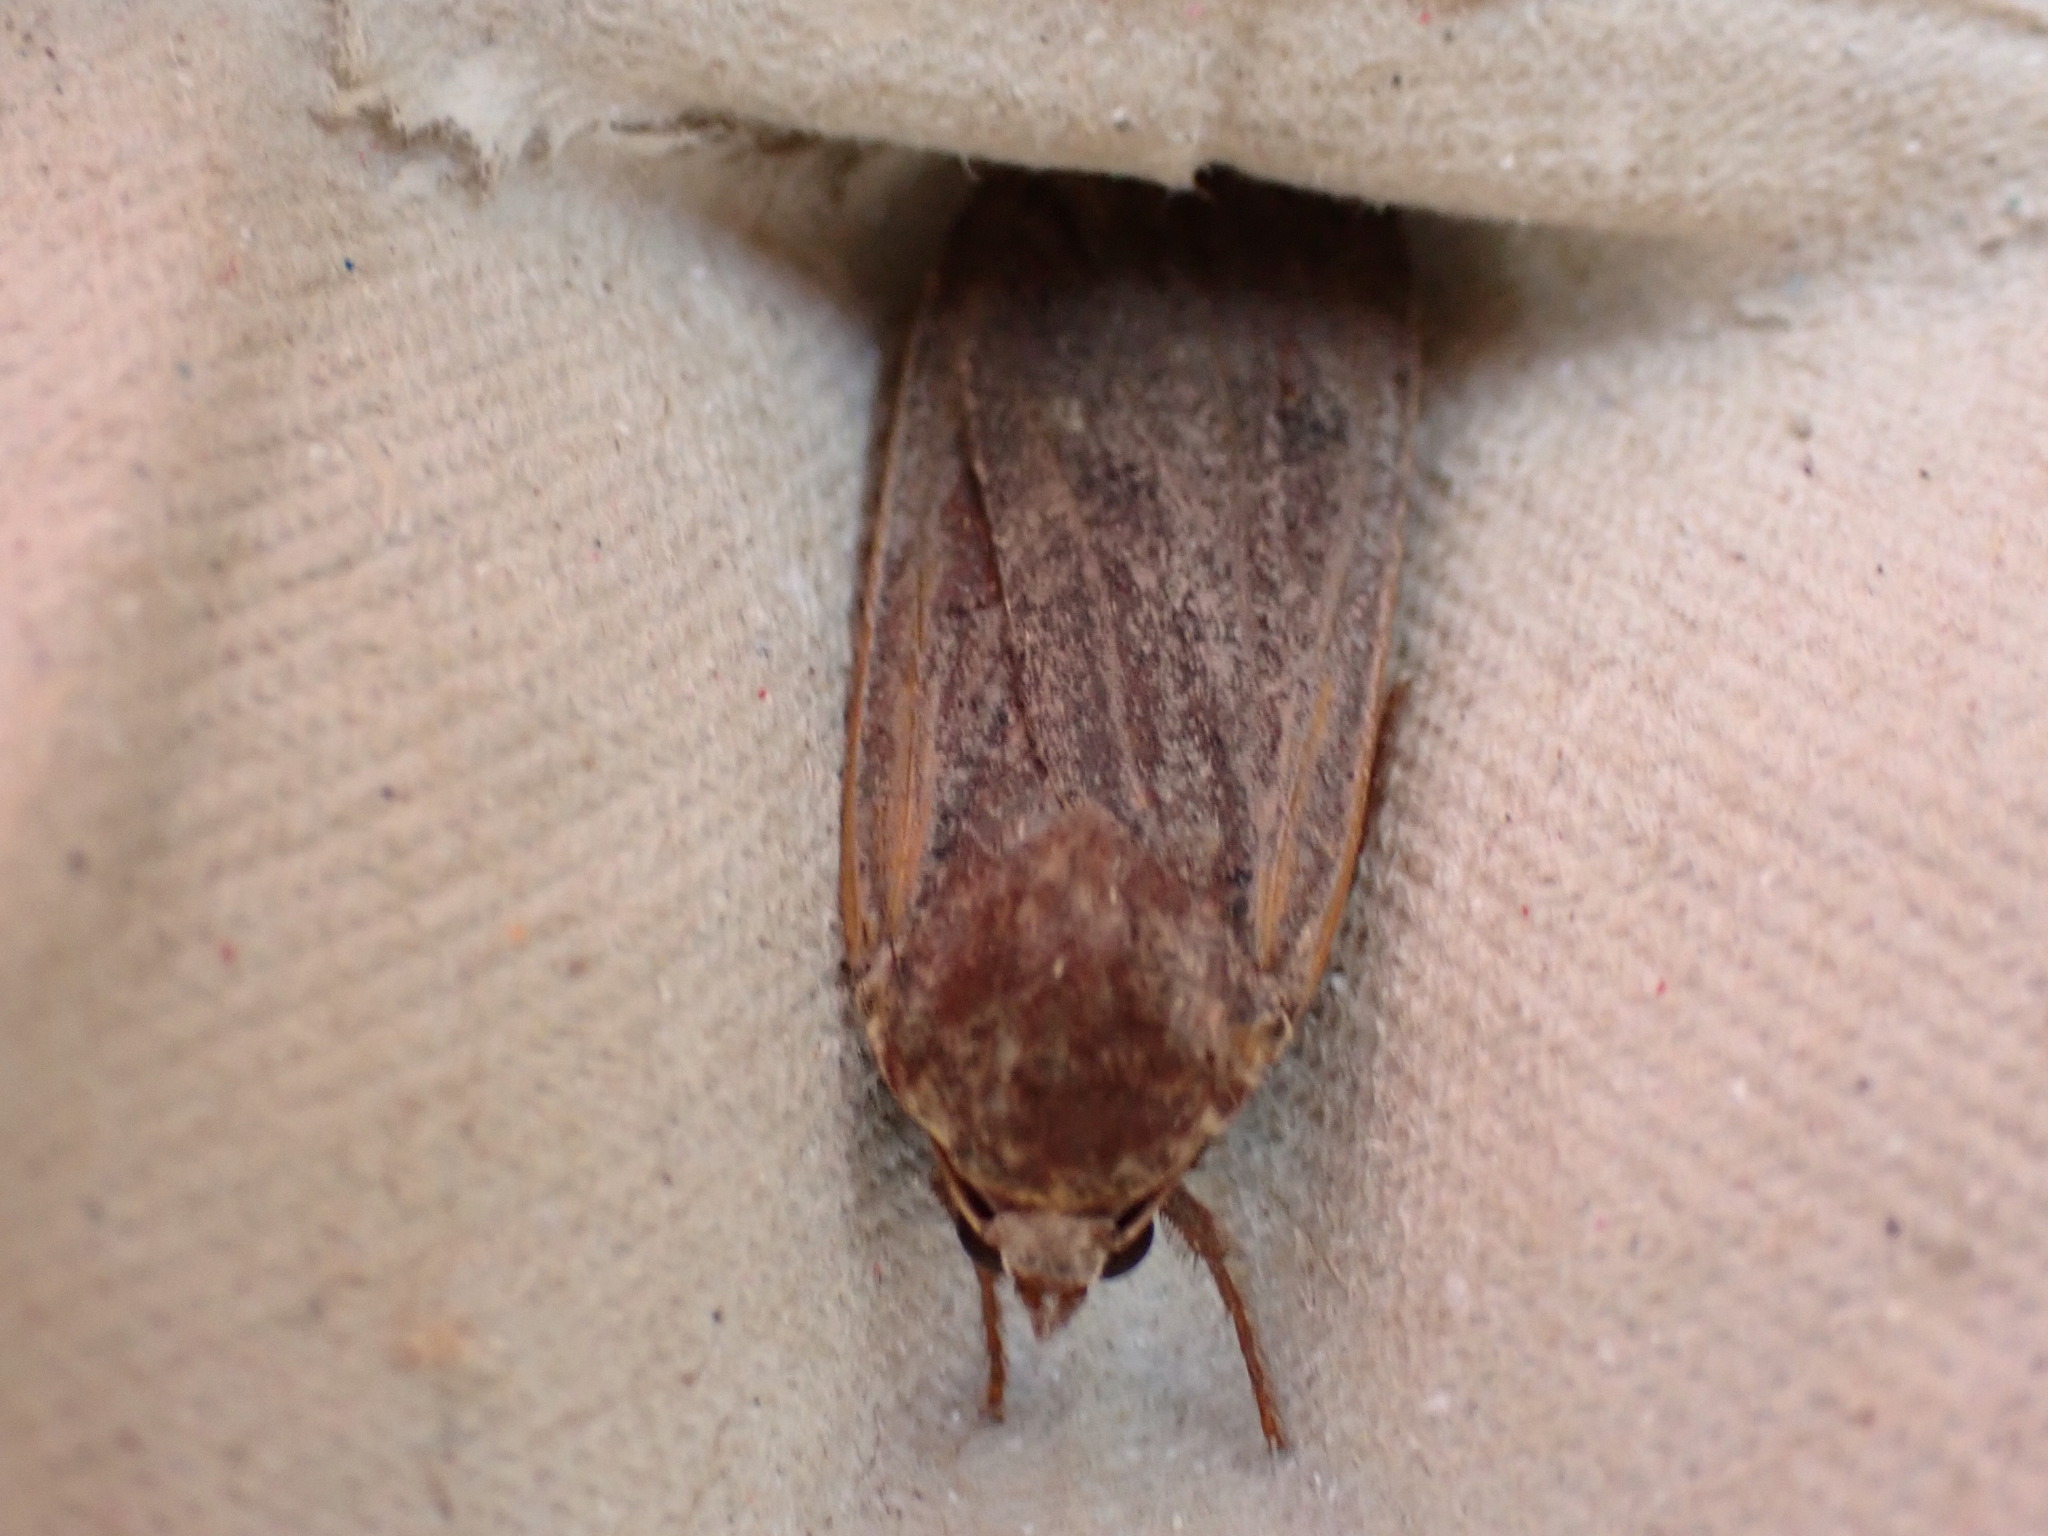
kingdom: Animalia
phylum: Arthropoda
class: Insecta
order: Lepidoptera
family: Noctuidae
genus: Noctua
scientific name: Noctua pronuba
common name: Large yellow underwing
